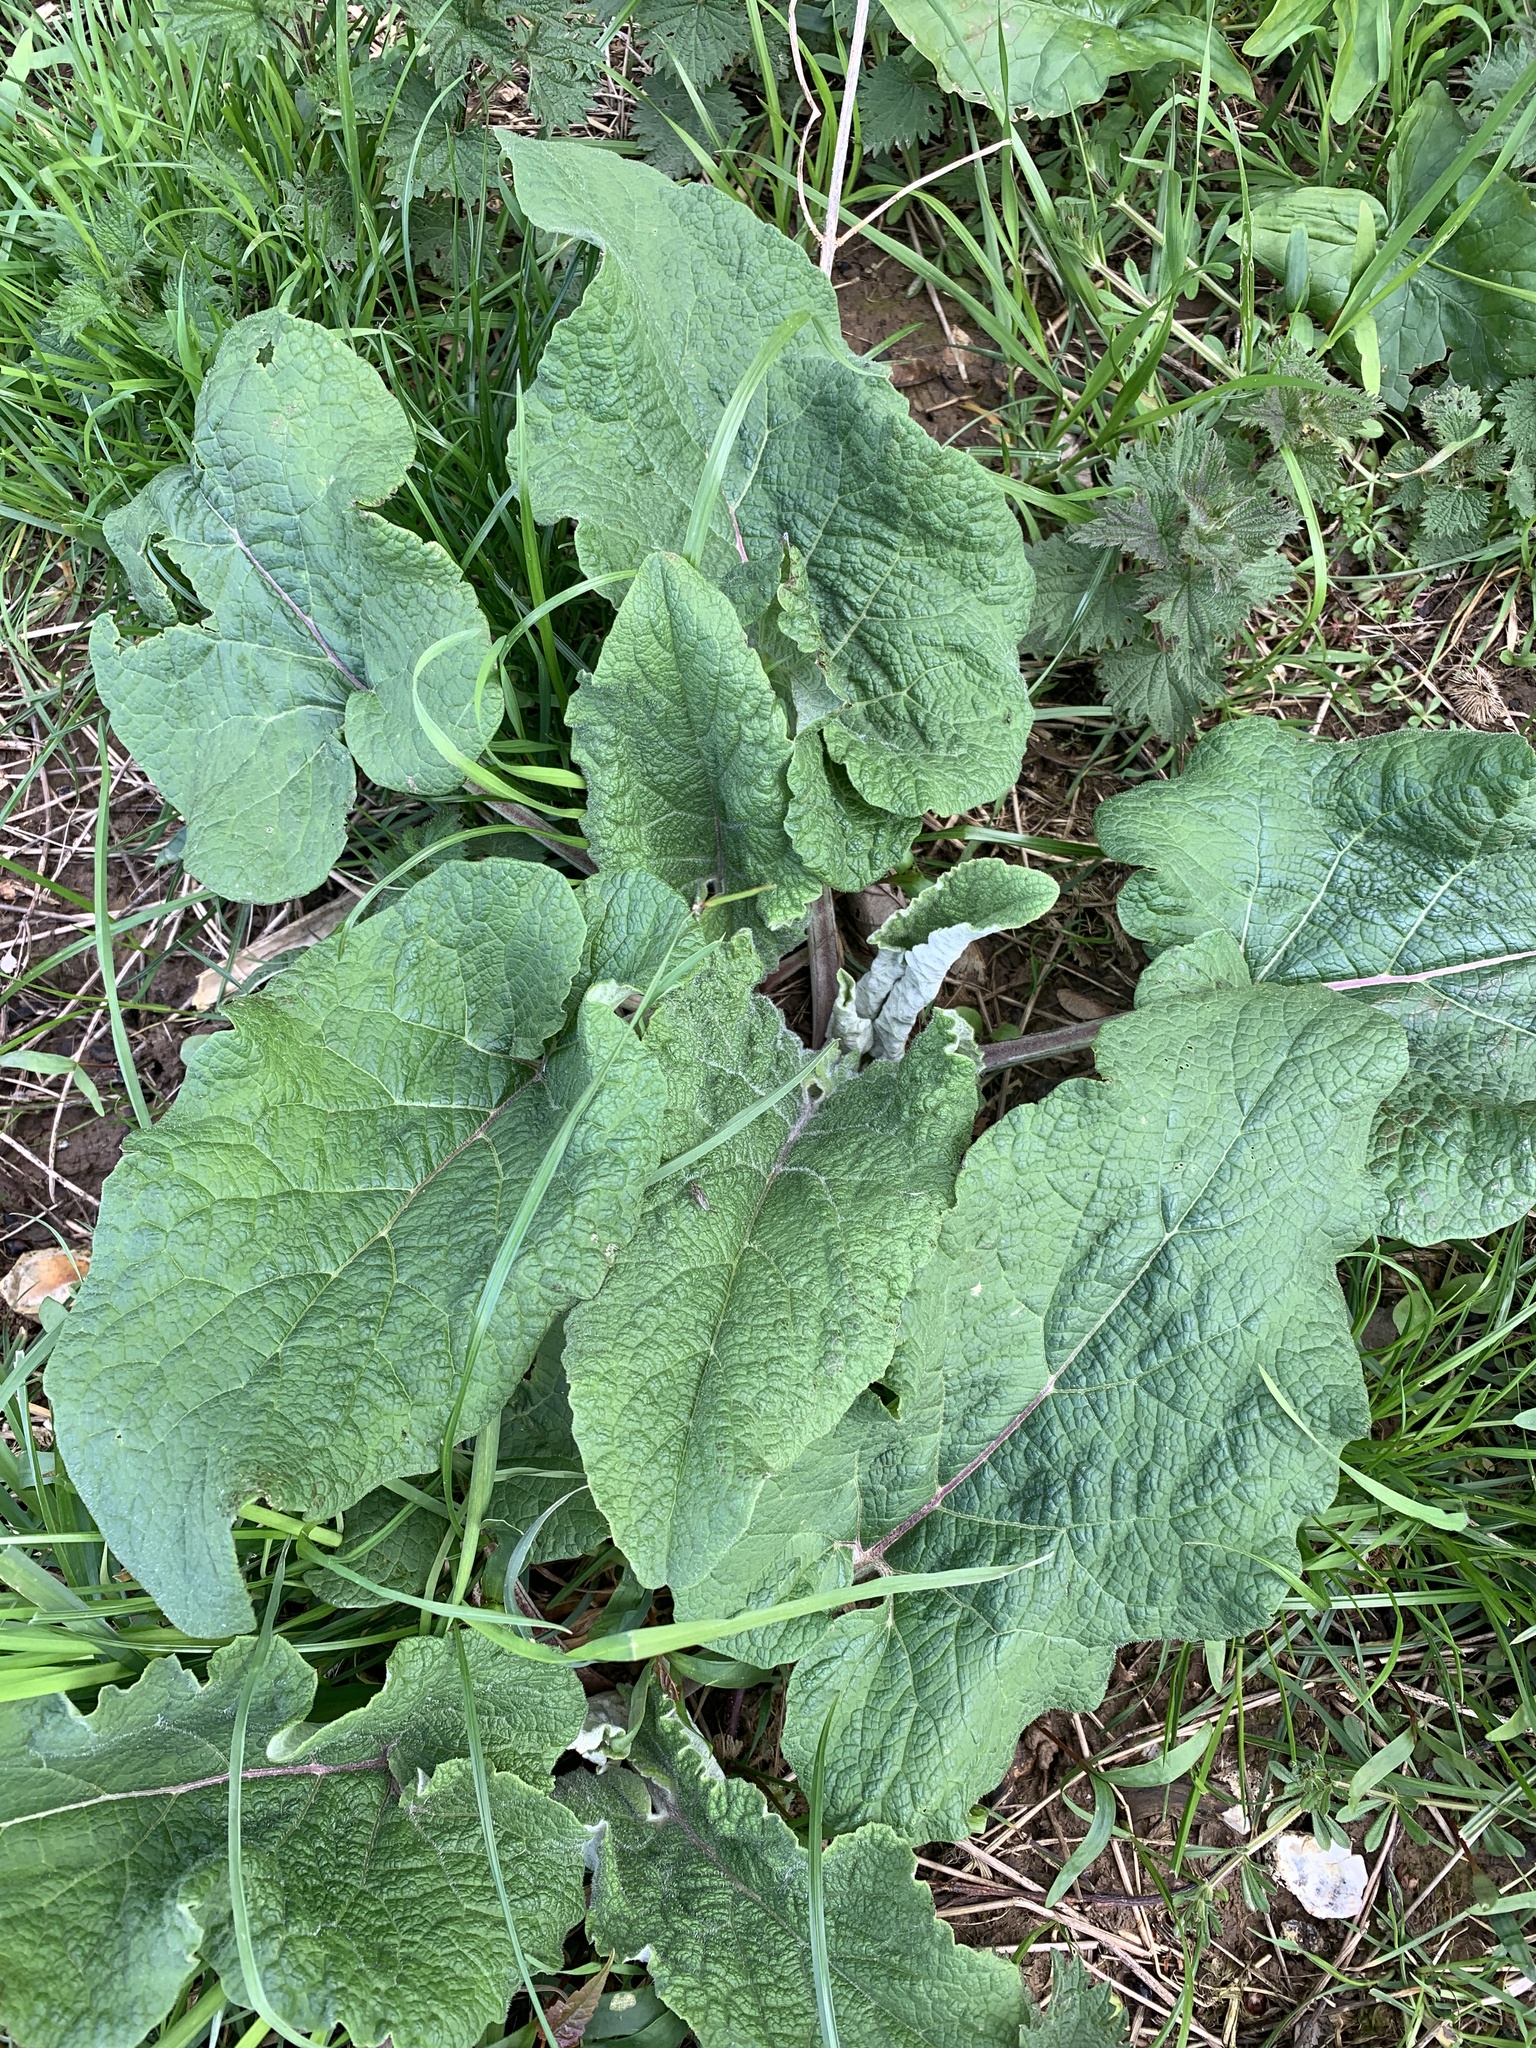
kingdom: Plantae
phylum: Tracheophyta
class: Magnoliopsida
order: Boraginales
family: Boraginaceae
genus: Symphytum
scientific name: Symphytum officinale
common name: Common comfrey
